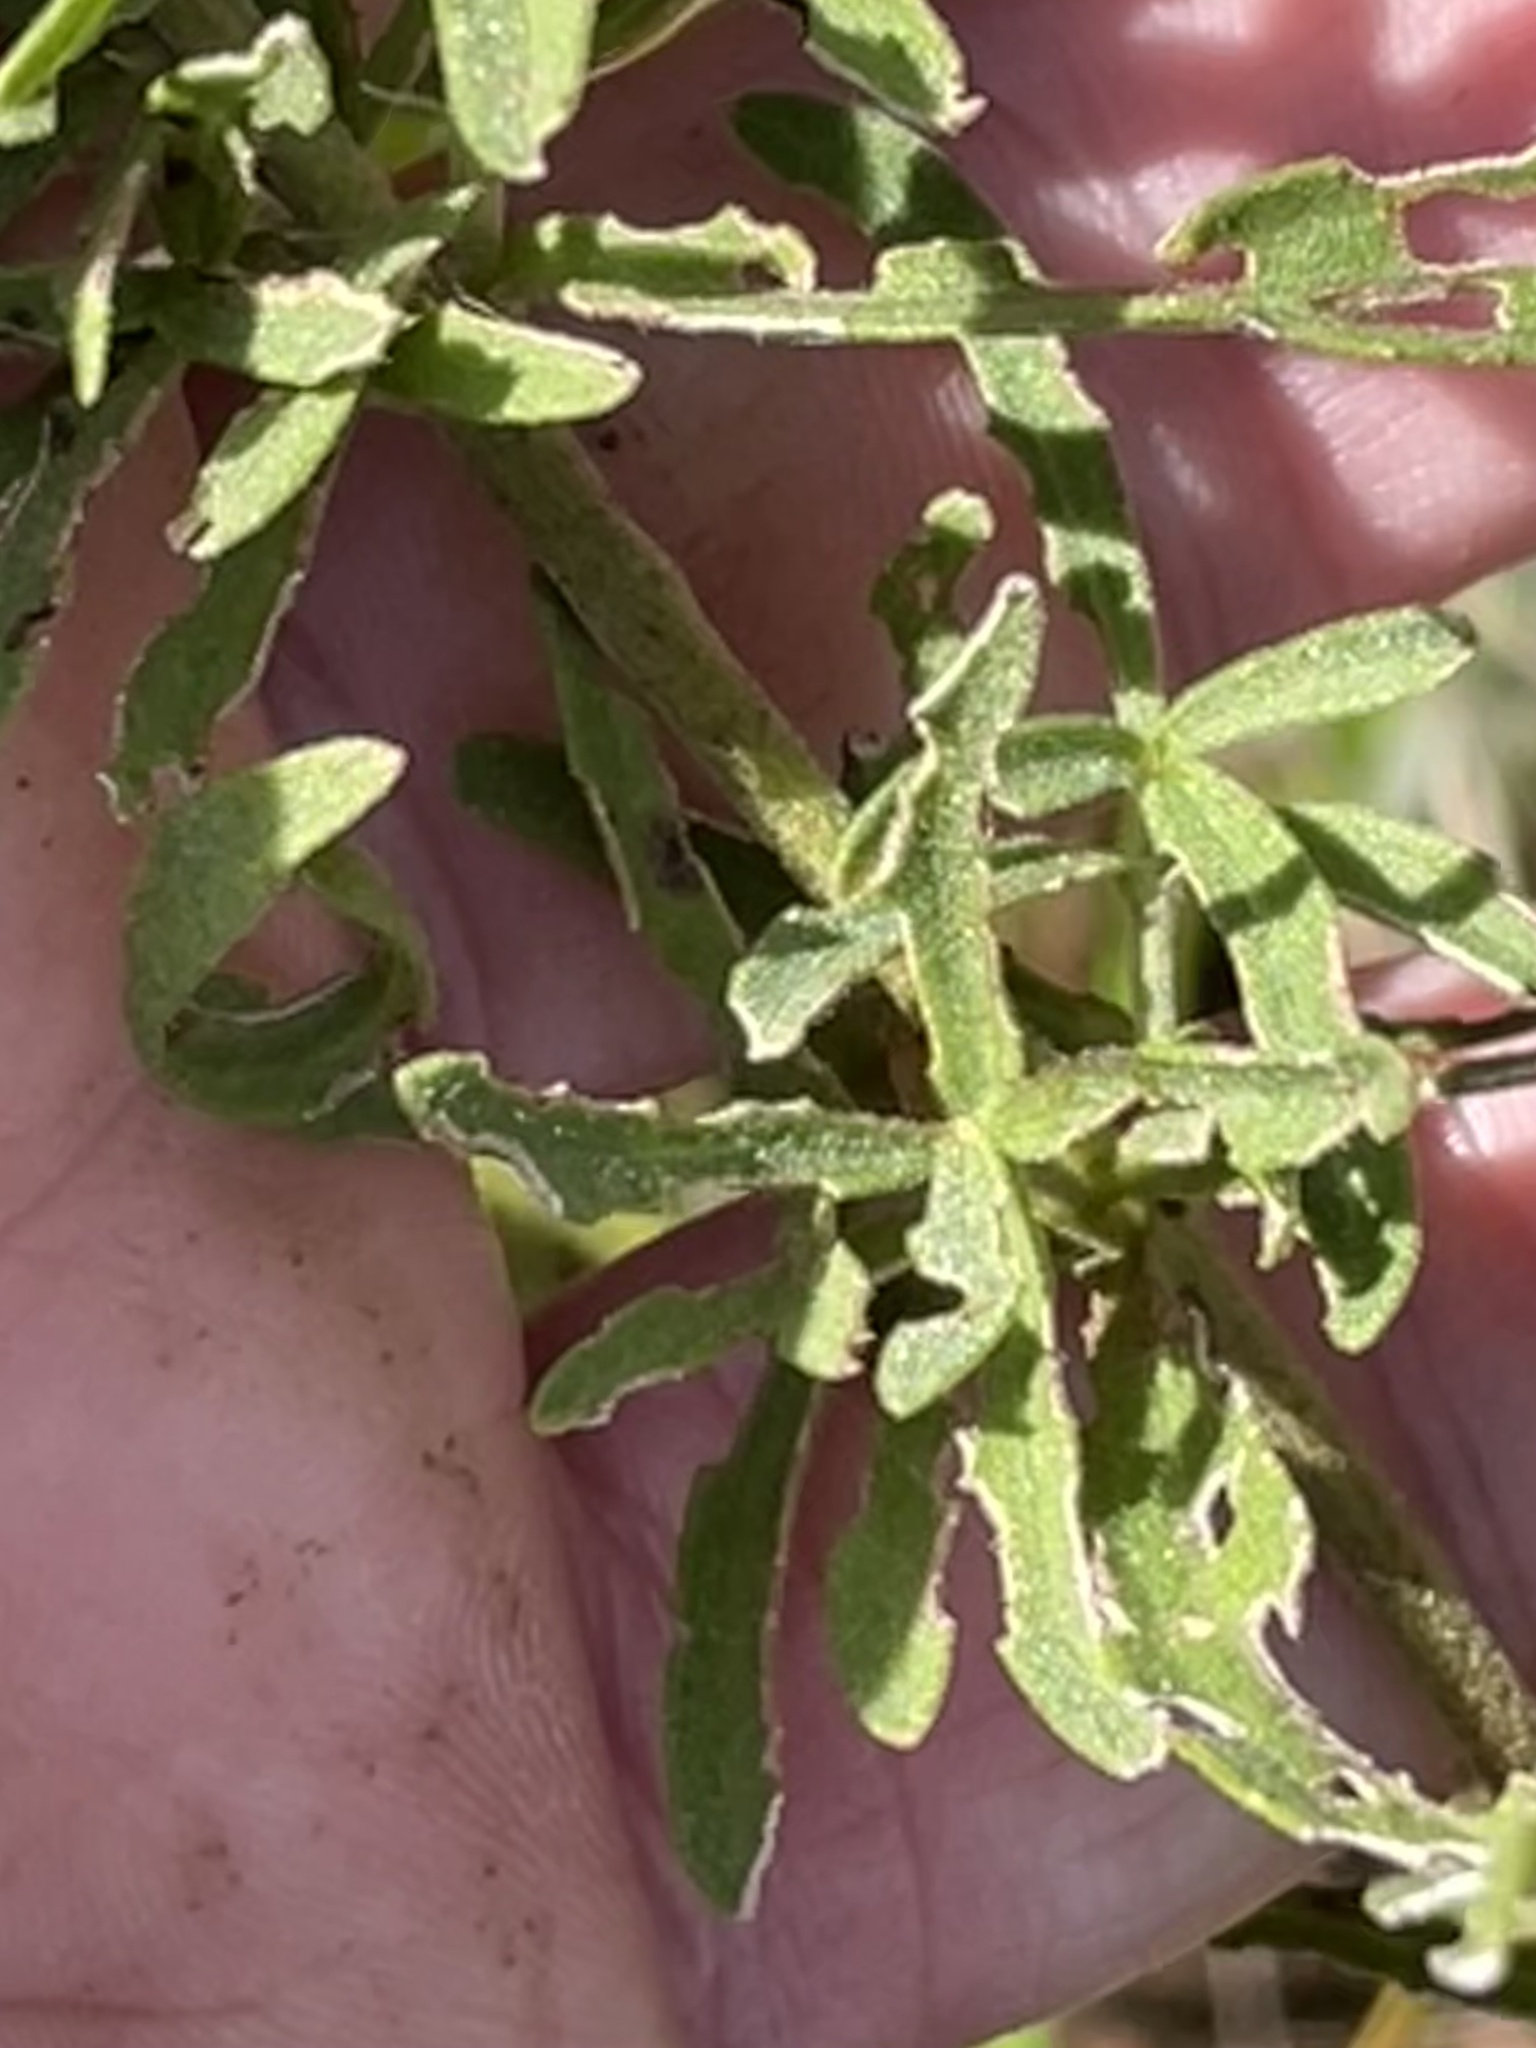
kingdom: Plantae
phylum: Tracheophyta
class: Magnoliopsida
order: Asterales
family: Asteraceae
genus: Eupatorium
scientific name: Eupatorium torreyanum
